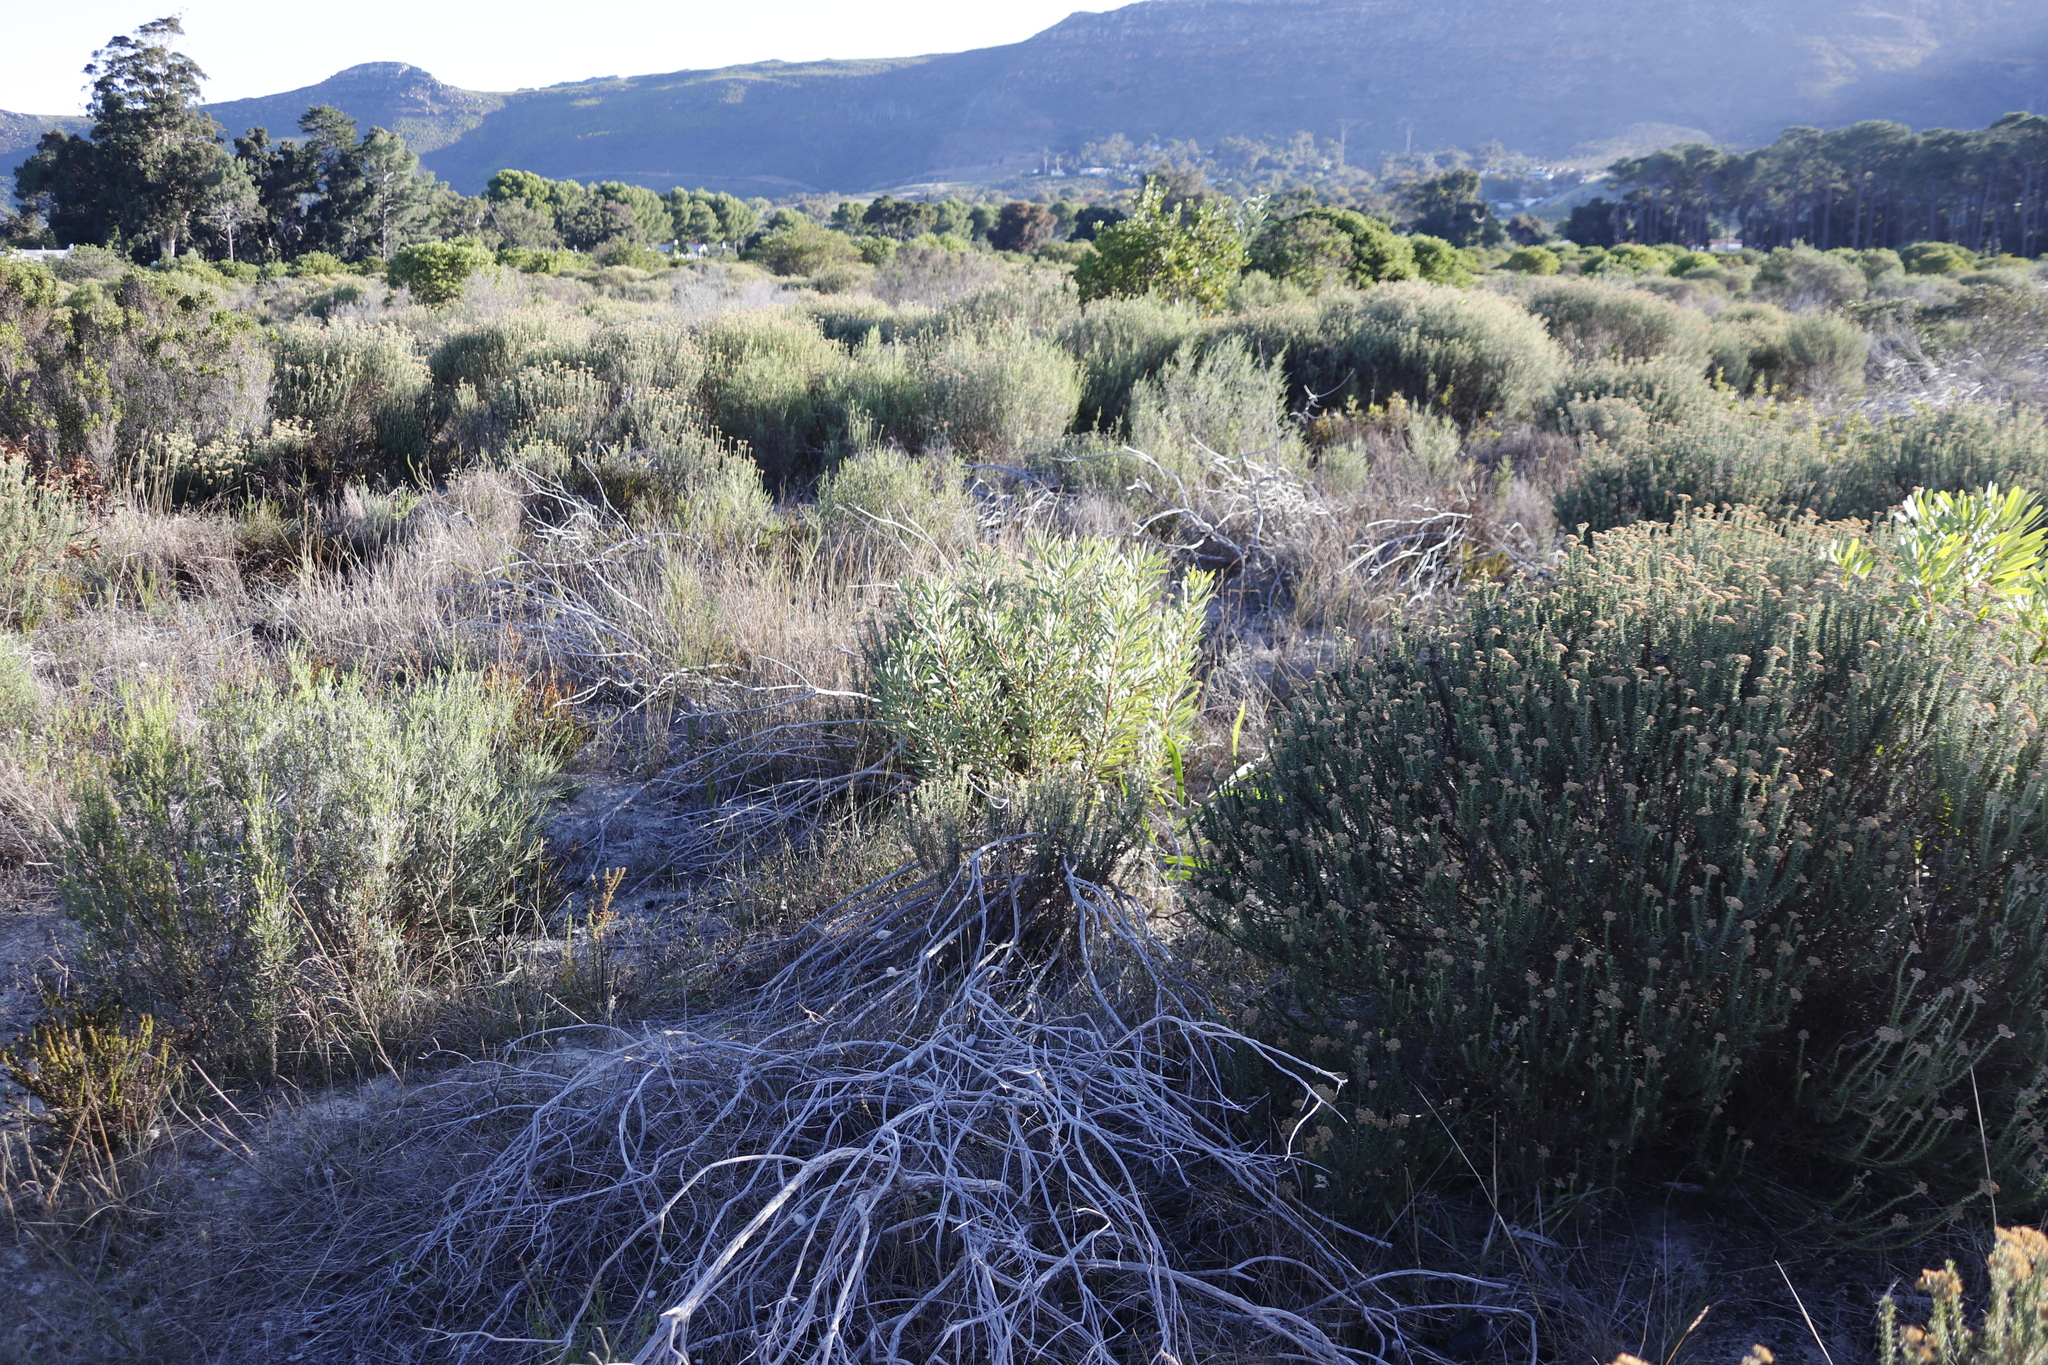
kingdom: Plantae
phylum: Tracheophyta
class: Magnoliopsida
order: Proteales
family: Proteaceae
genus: Protea
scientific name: Protea repens
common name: Sugarbush
